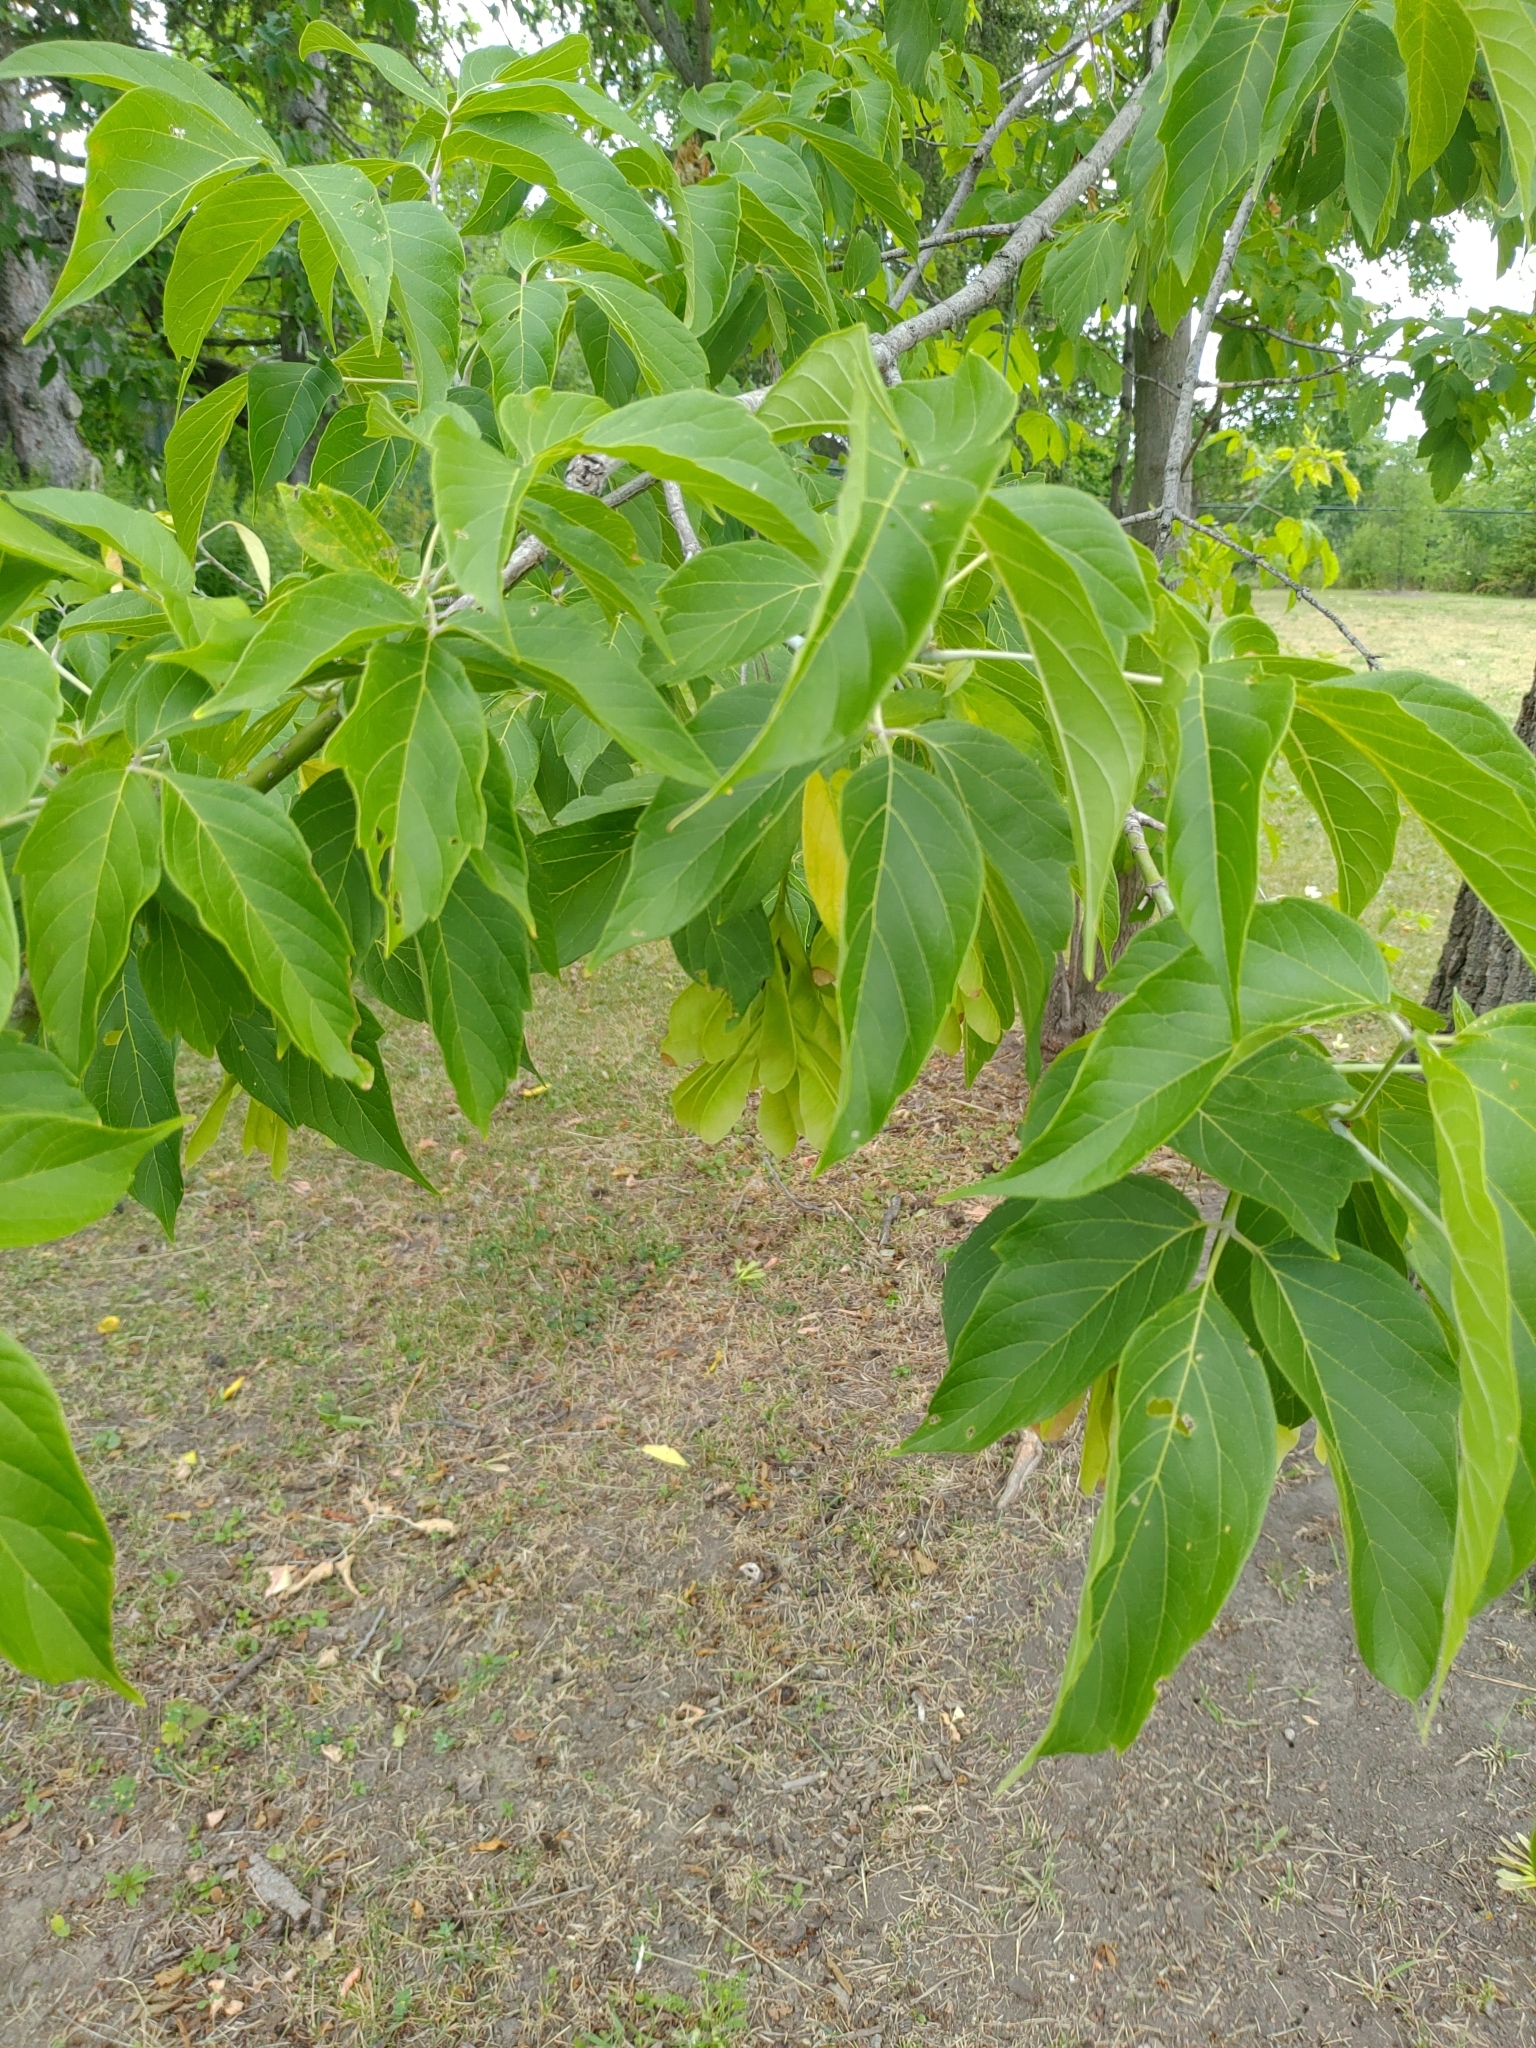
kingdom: Plantae
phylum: Tracheophyta
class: Magnoliopsida
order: Sapindales
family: Sapindaceae
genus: Acer
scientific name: Acer negundo
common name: Ashleaf maple
